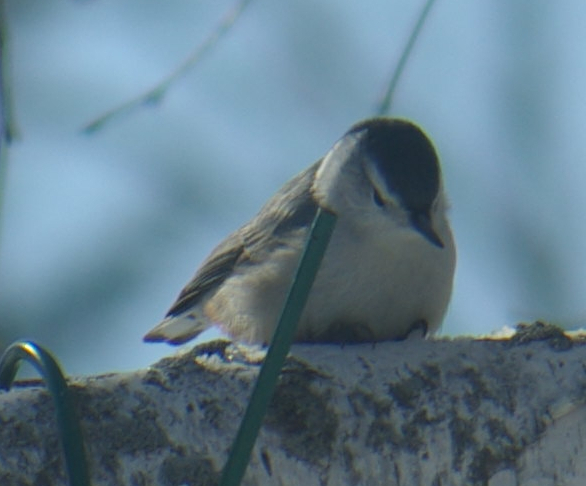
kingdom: Animalia
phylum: Chordata
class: Aves
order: Passeriformes
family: Sittidae
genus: Sitta
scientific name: Sitta carolinensis
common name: White-breasted nuthatch
